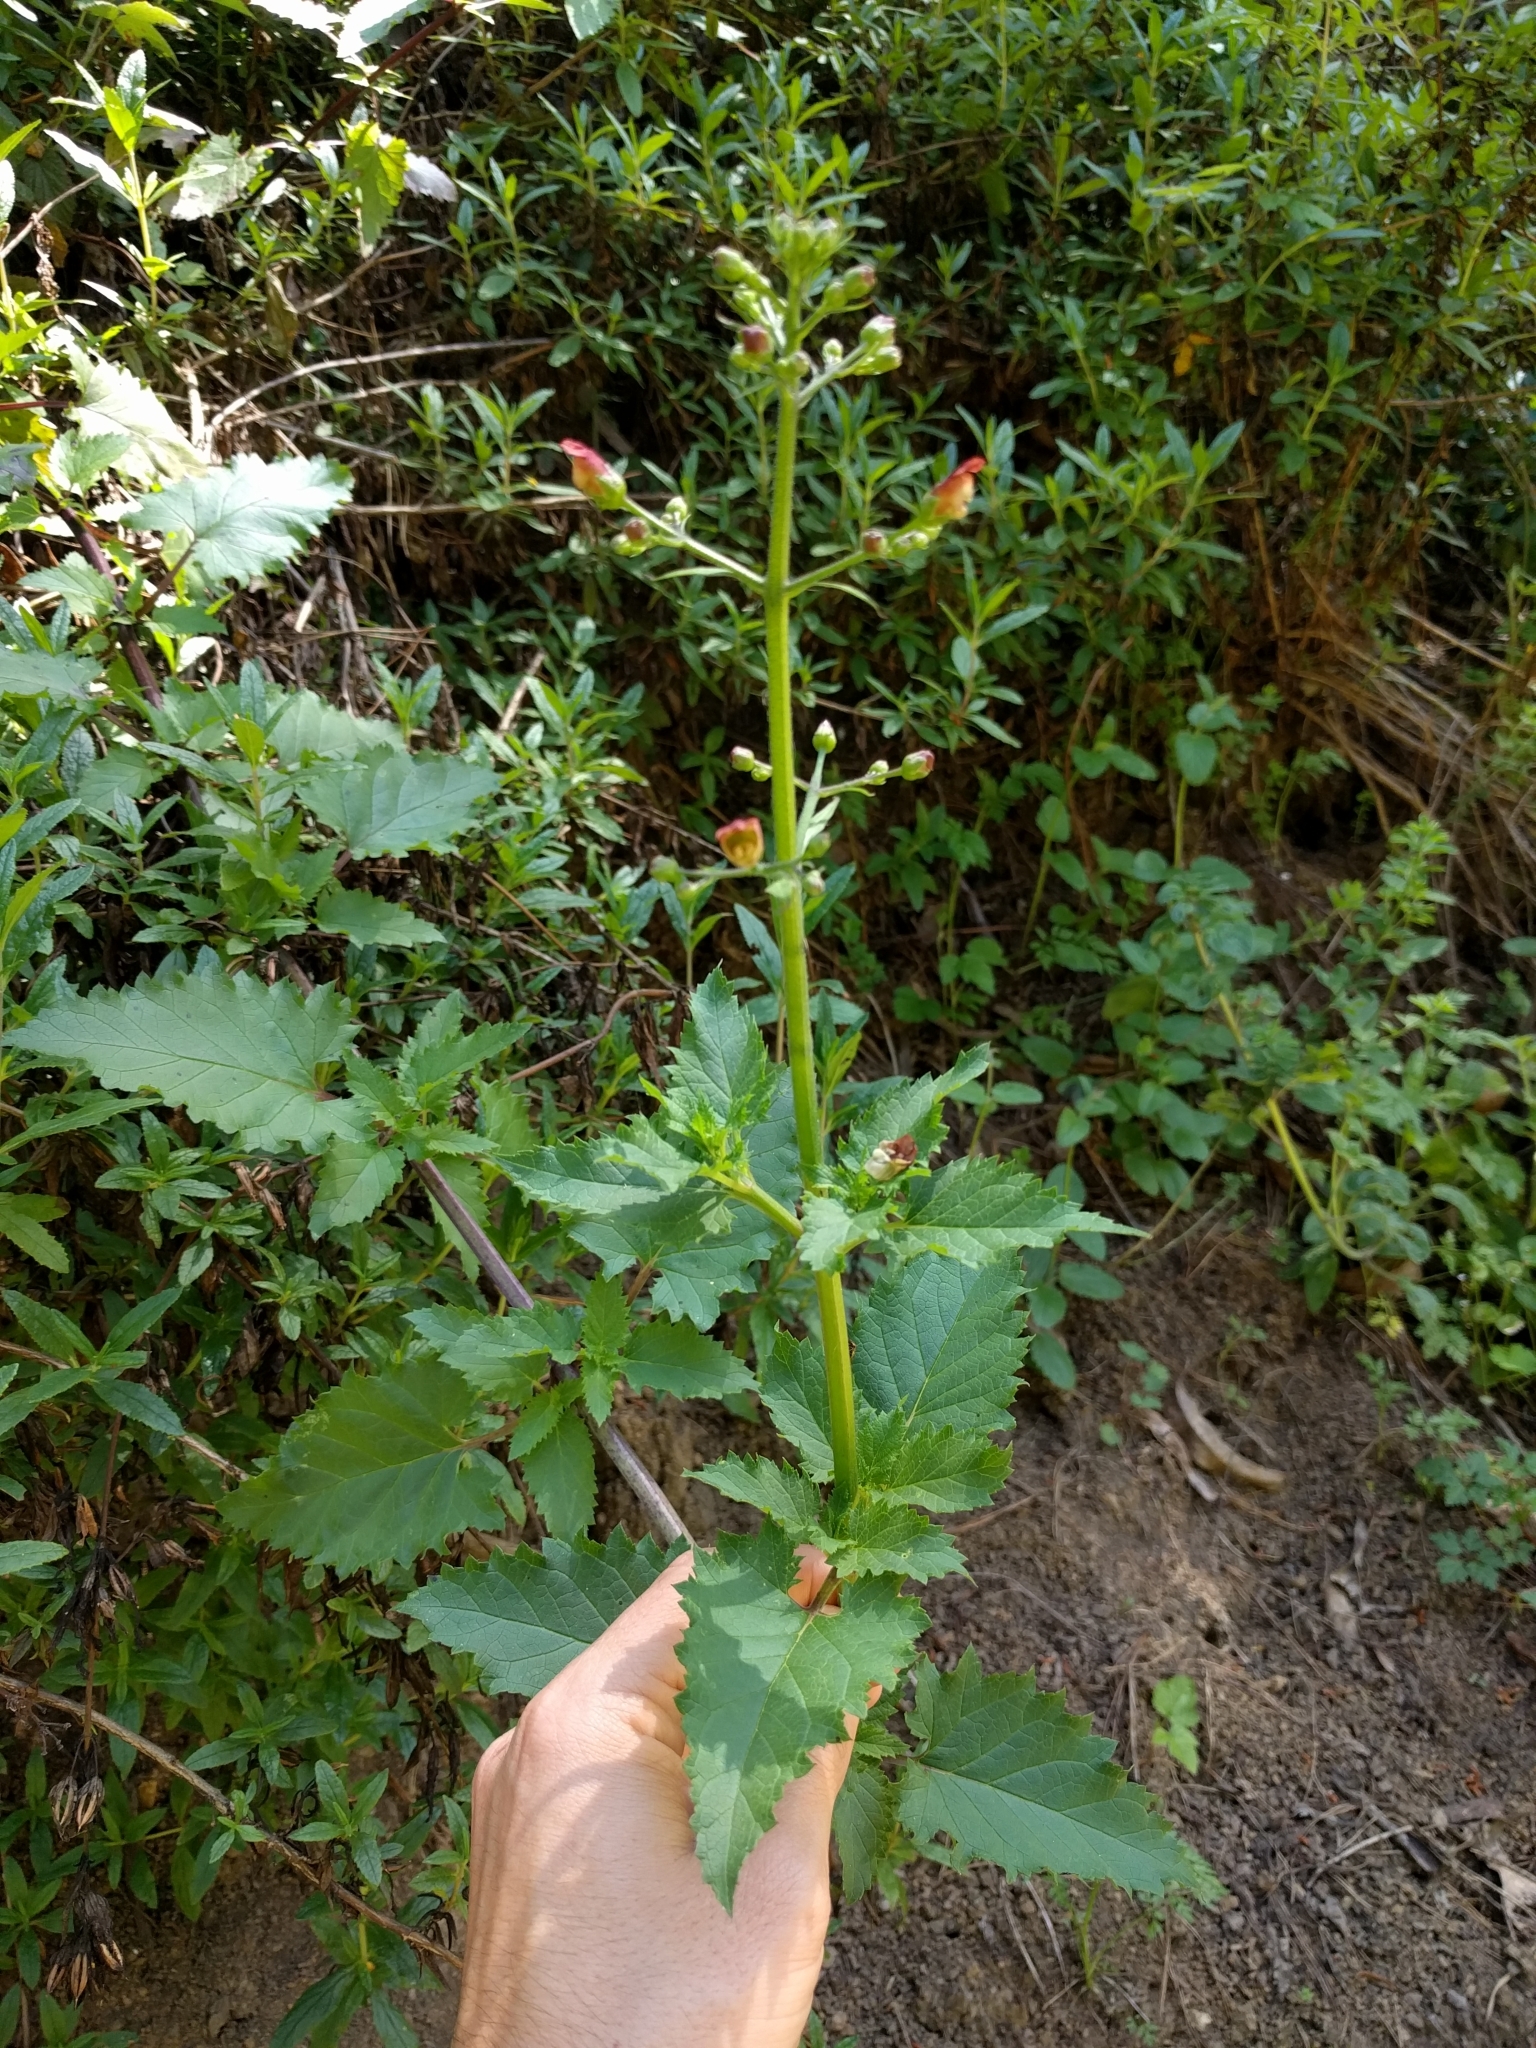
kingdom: Plantae
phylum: Tracheophyta
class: Magnoliopsida
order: Lamiales
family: Scrophulariaceae
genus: Scrophularia
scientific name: Scrophularia californica
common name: California figwort
